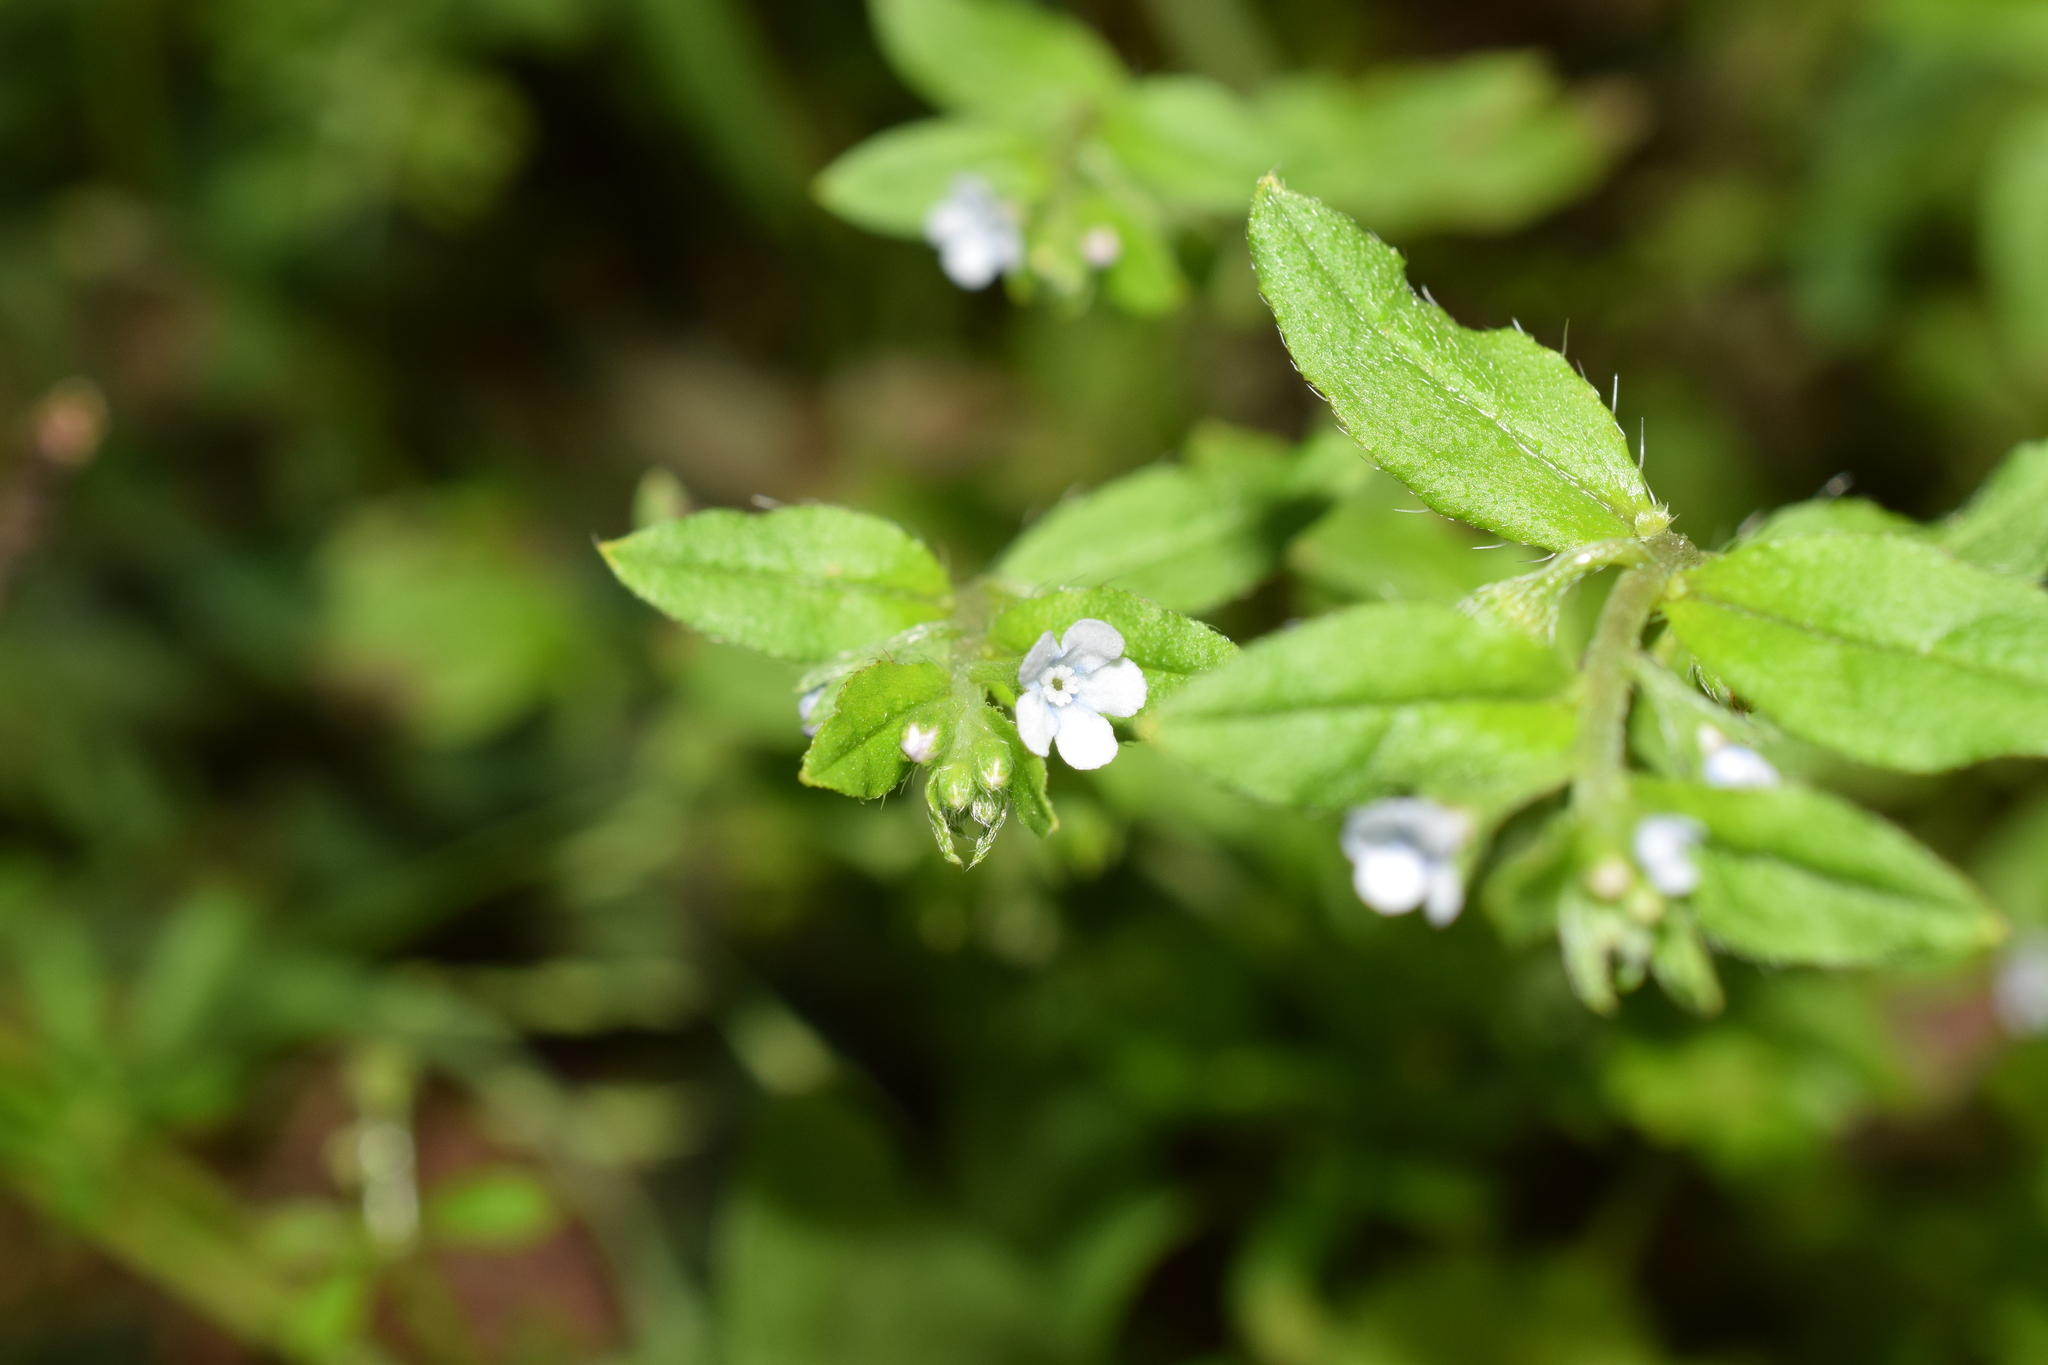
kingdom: Plantae
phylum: Tracheophyta
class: Magnoliopsida
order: Boraginales
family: Boraginaceae
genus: Bothriospermum
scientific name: Bothriospermum zeylanicum
